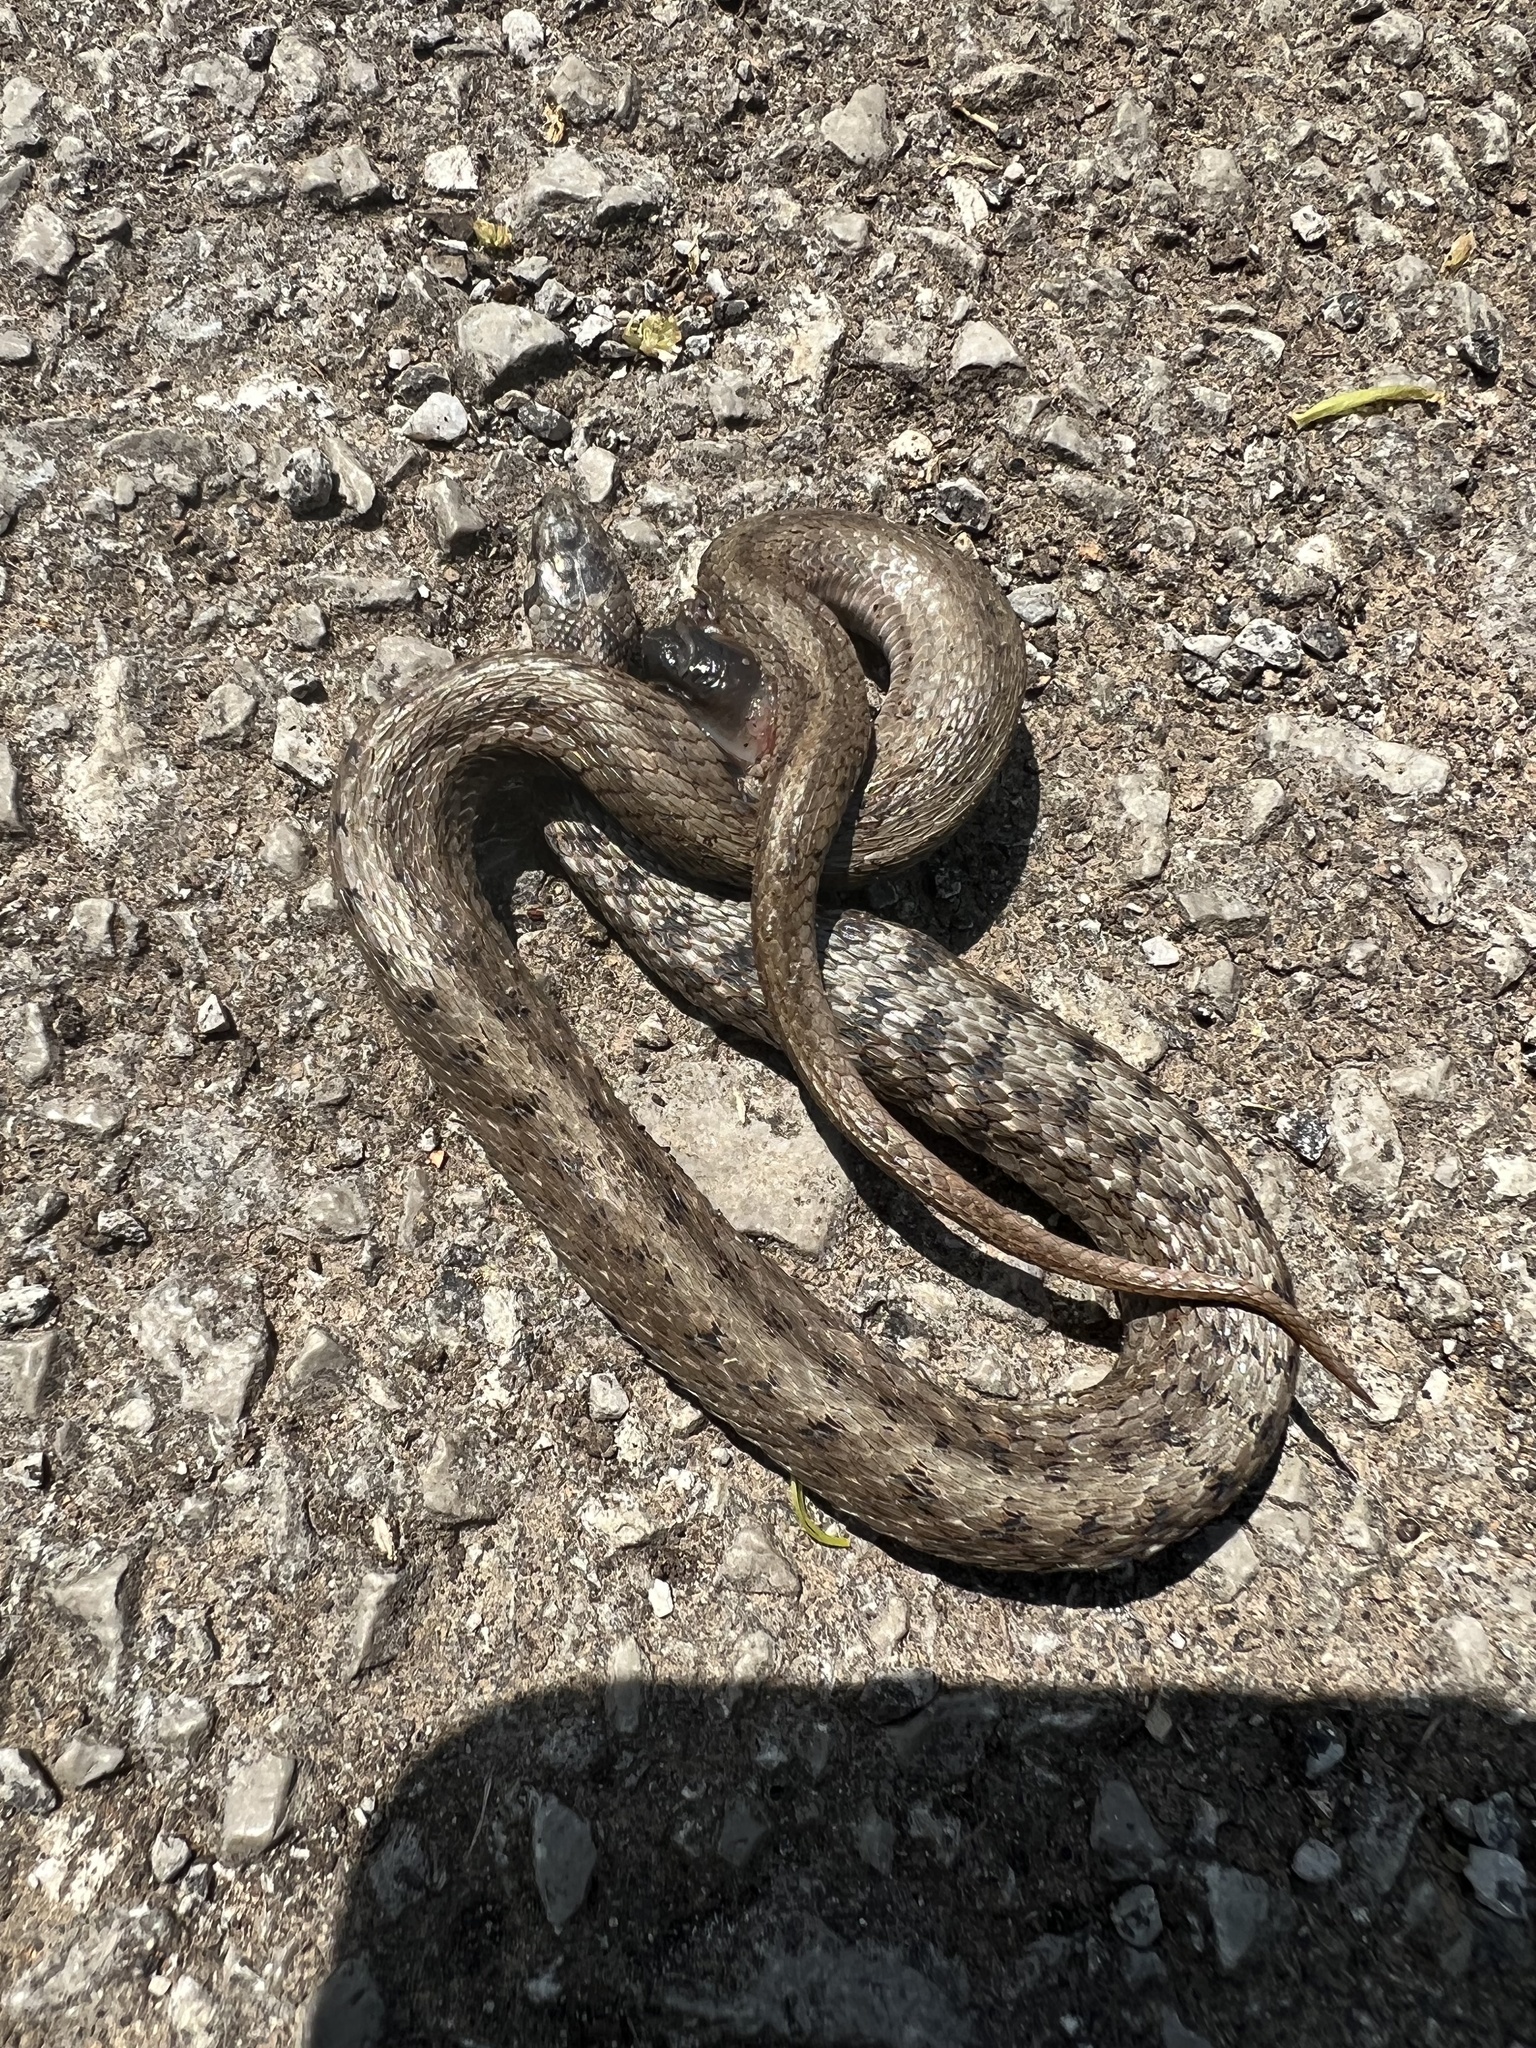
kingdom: Animalia
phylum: Chordata
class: Squamata
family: Colubridae
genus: Storeria
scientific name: Storeria dekayi
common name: (dekay’s) brown snake
